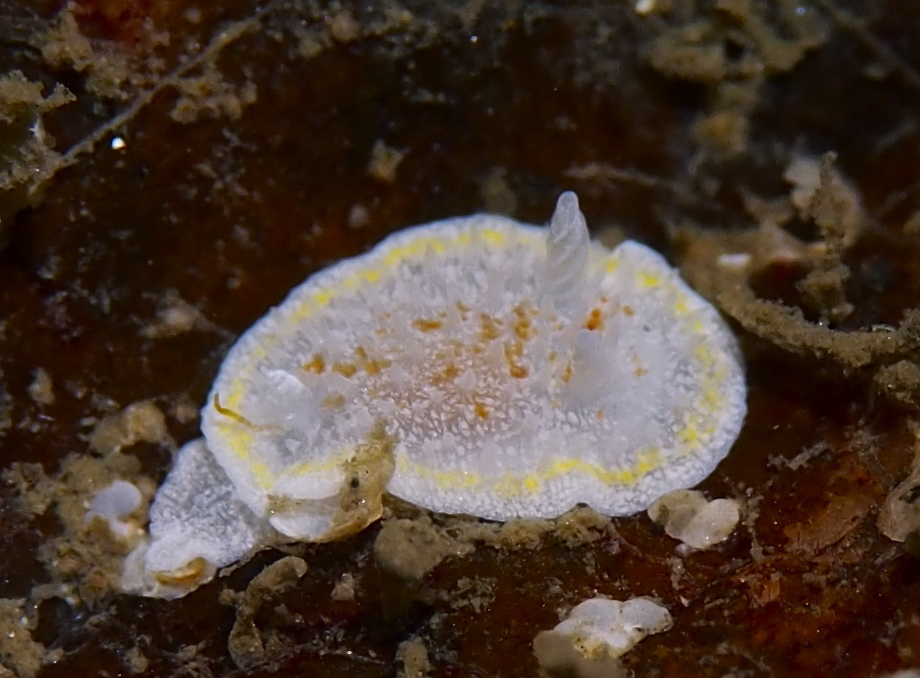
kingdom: Animalia
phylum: Mollusca
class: Gastropoda
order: Nudibranchia
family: Calycidorididae
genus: Diaphorodoris
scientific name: Diaphorodoris luteocincta
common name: Fried egg nudibranch
